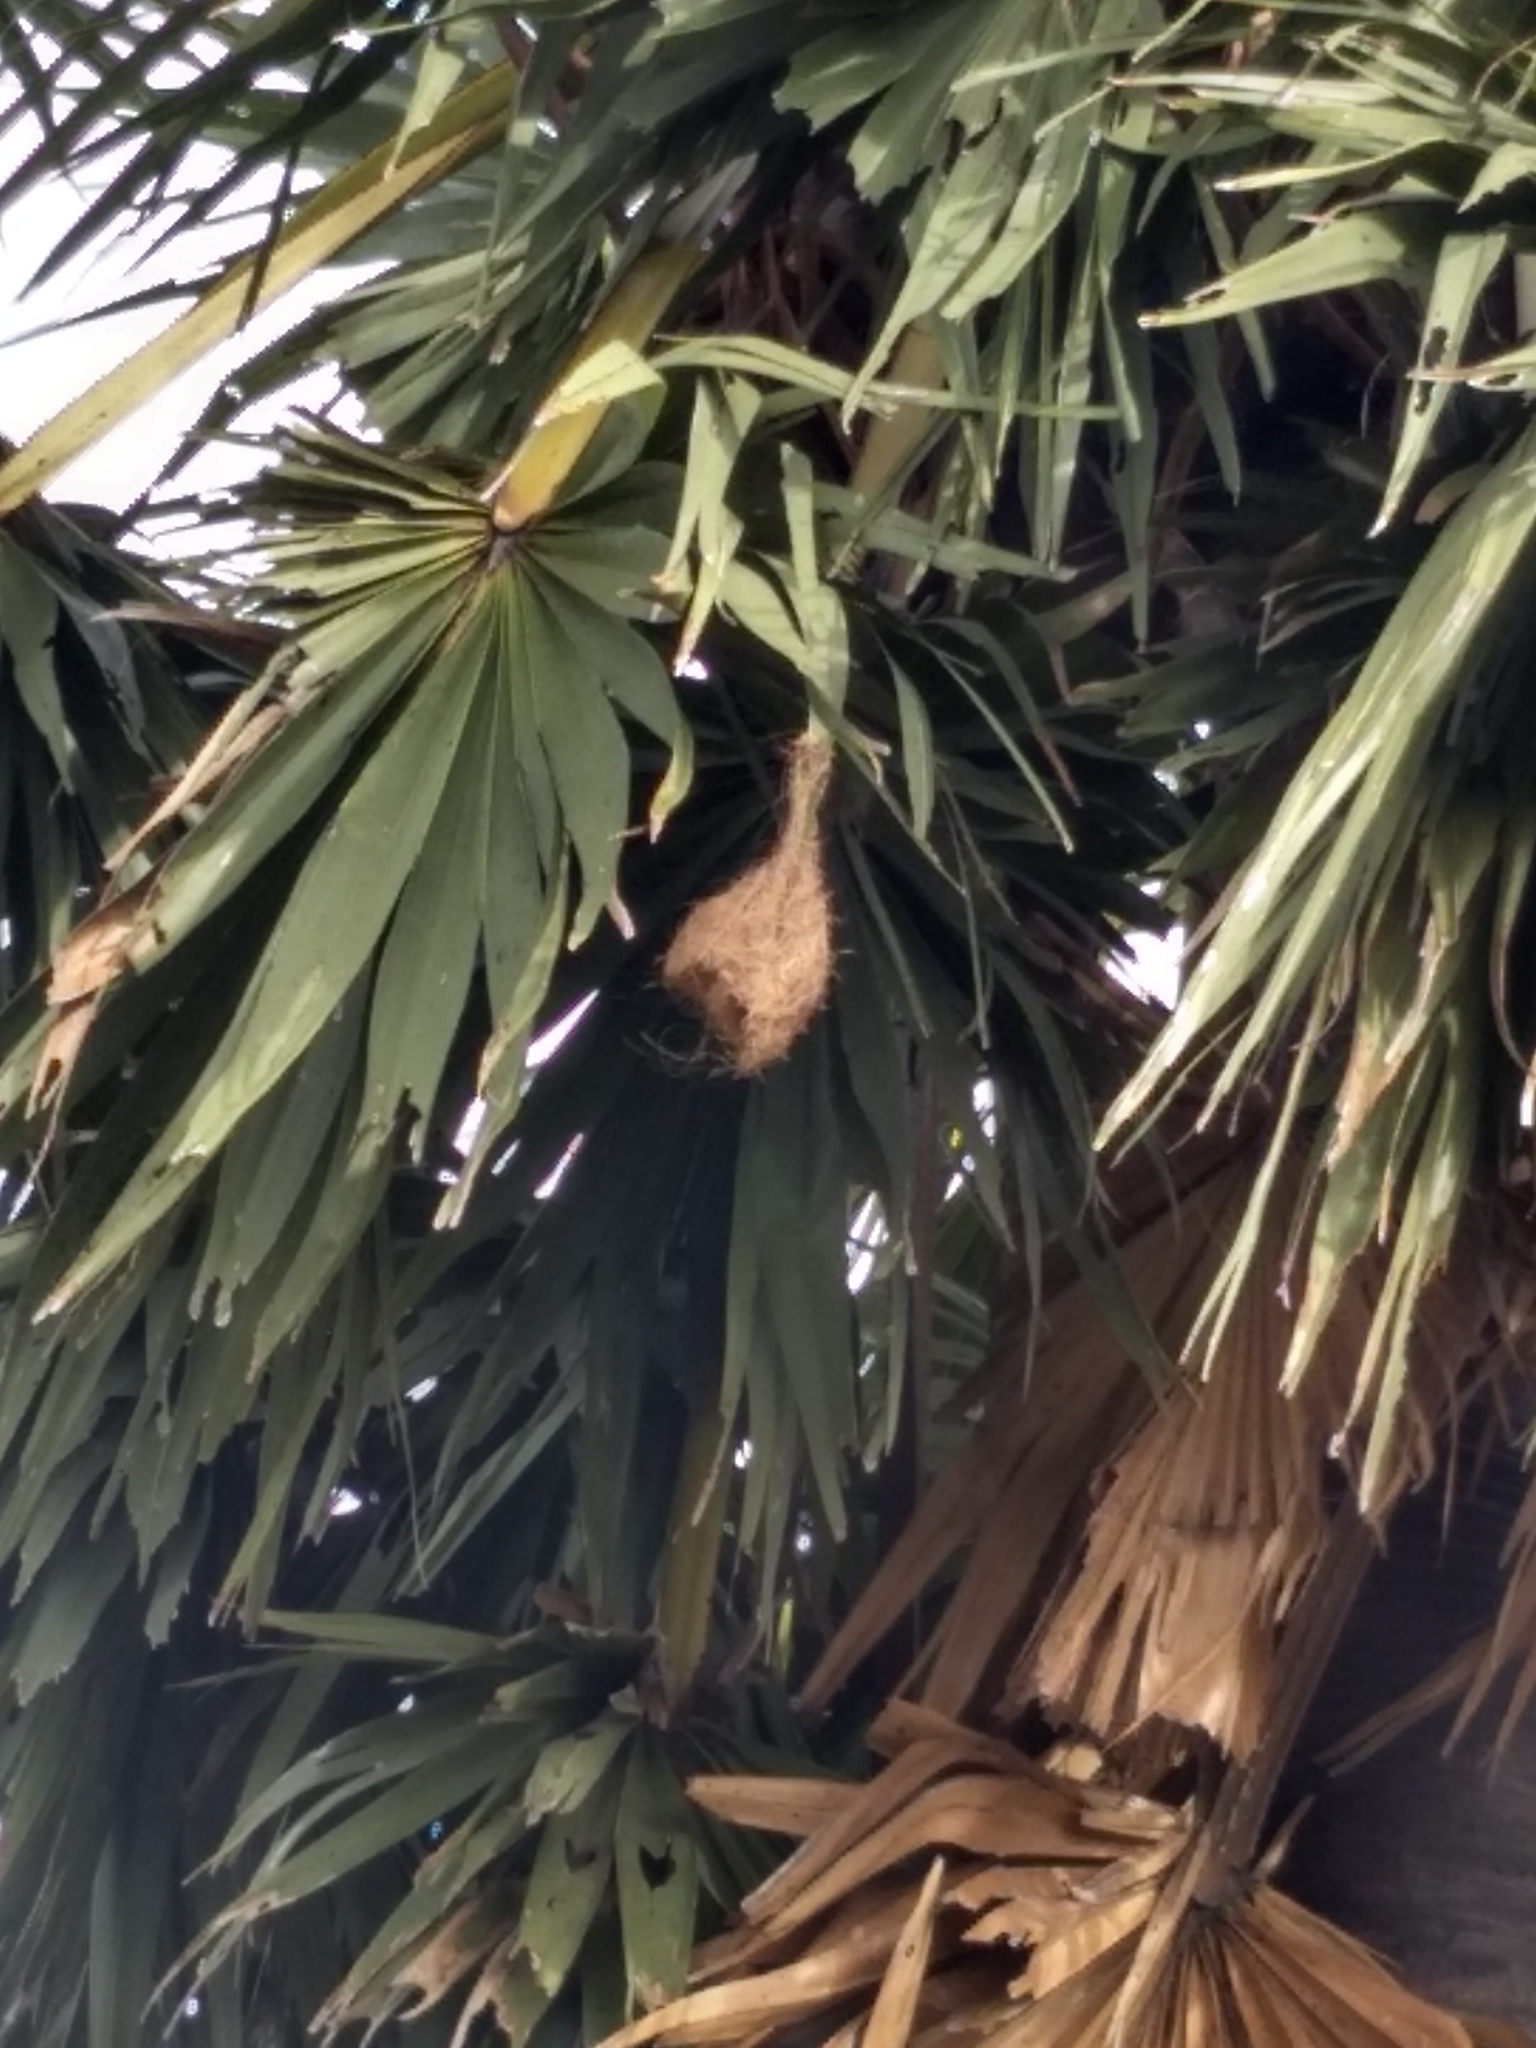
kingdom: Animalia
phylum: Chordata
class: Aves
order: Passeriformes
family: Ploceidae
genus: Ploceus
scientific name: Ploceus philippinus
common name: Baya weaver
